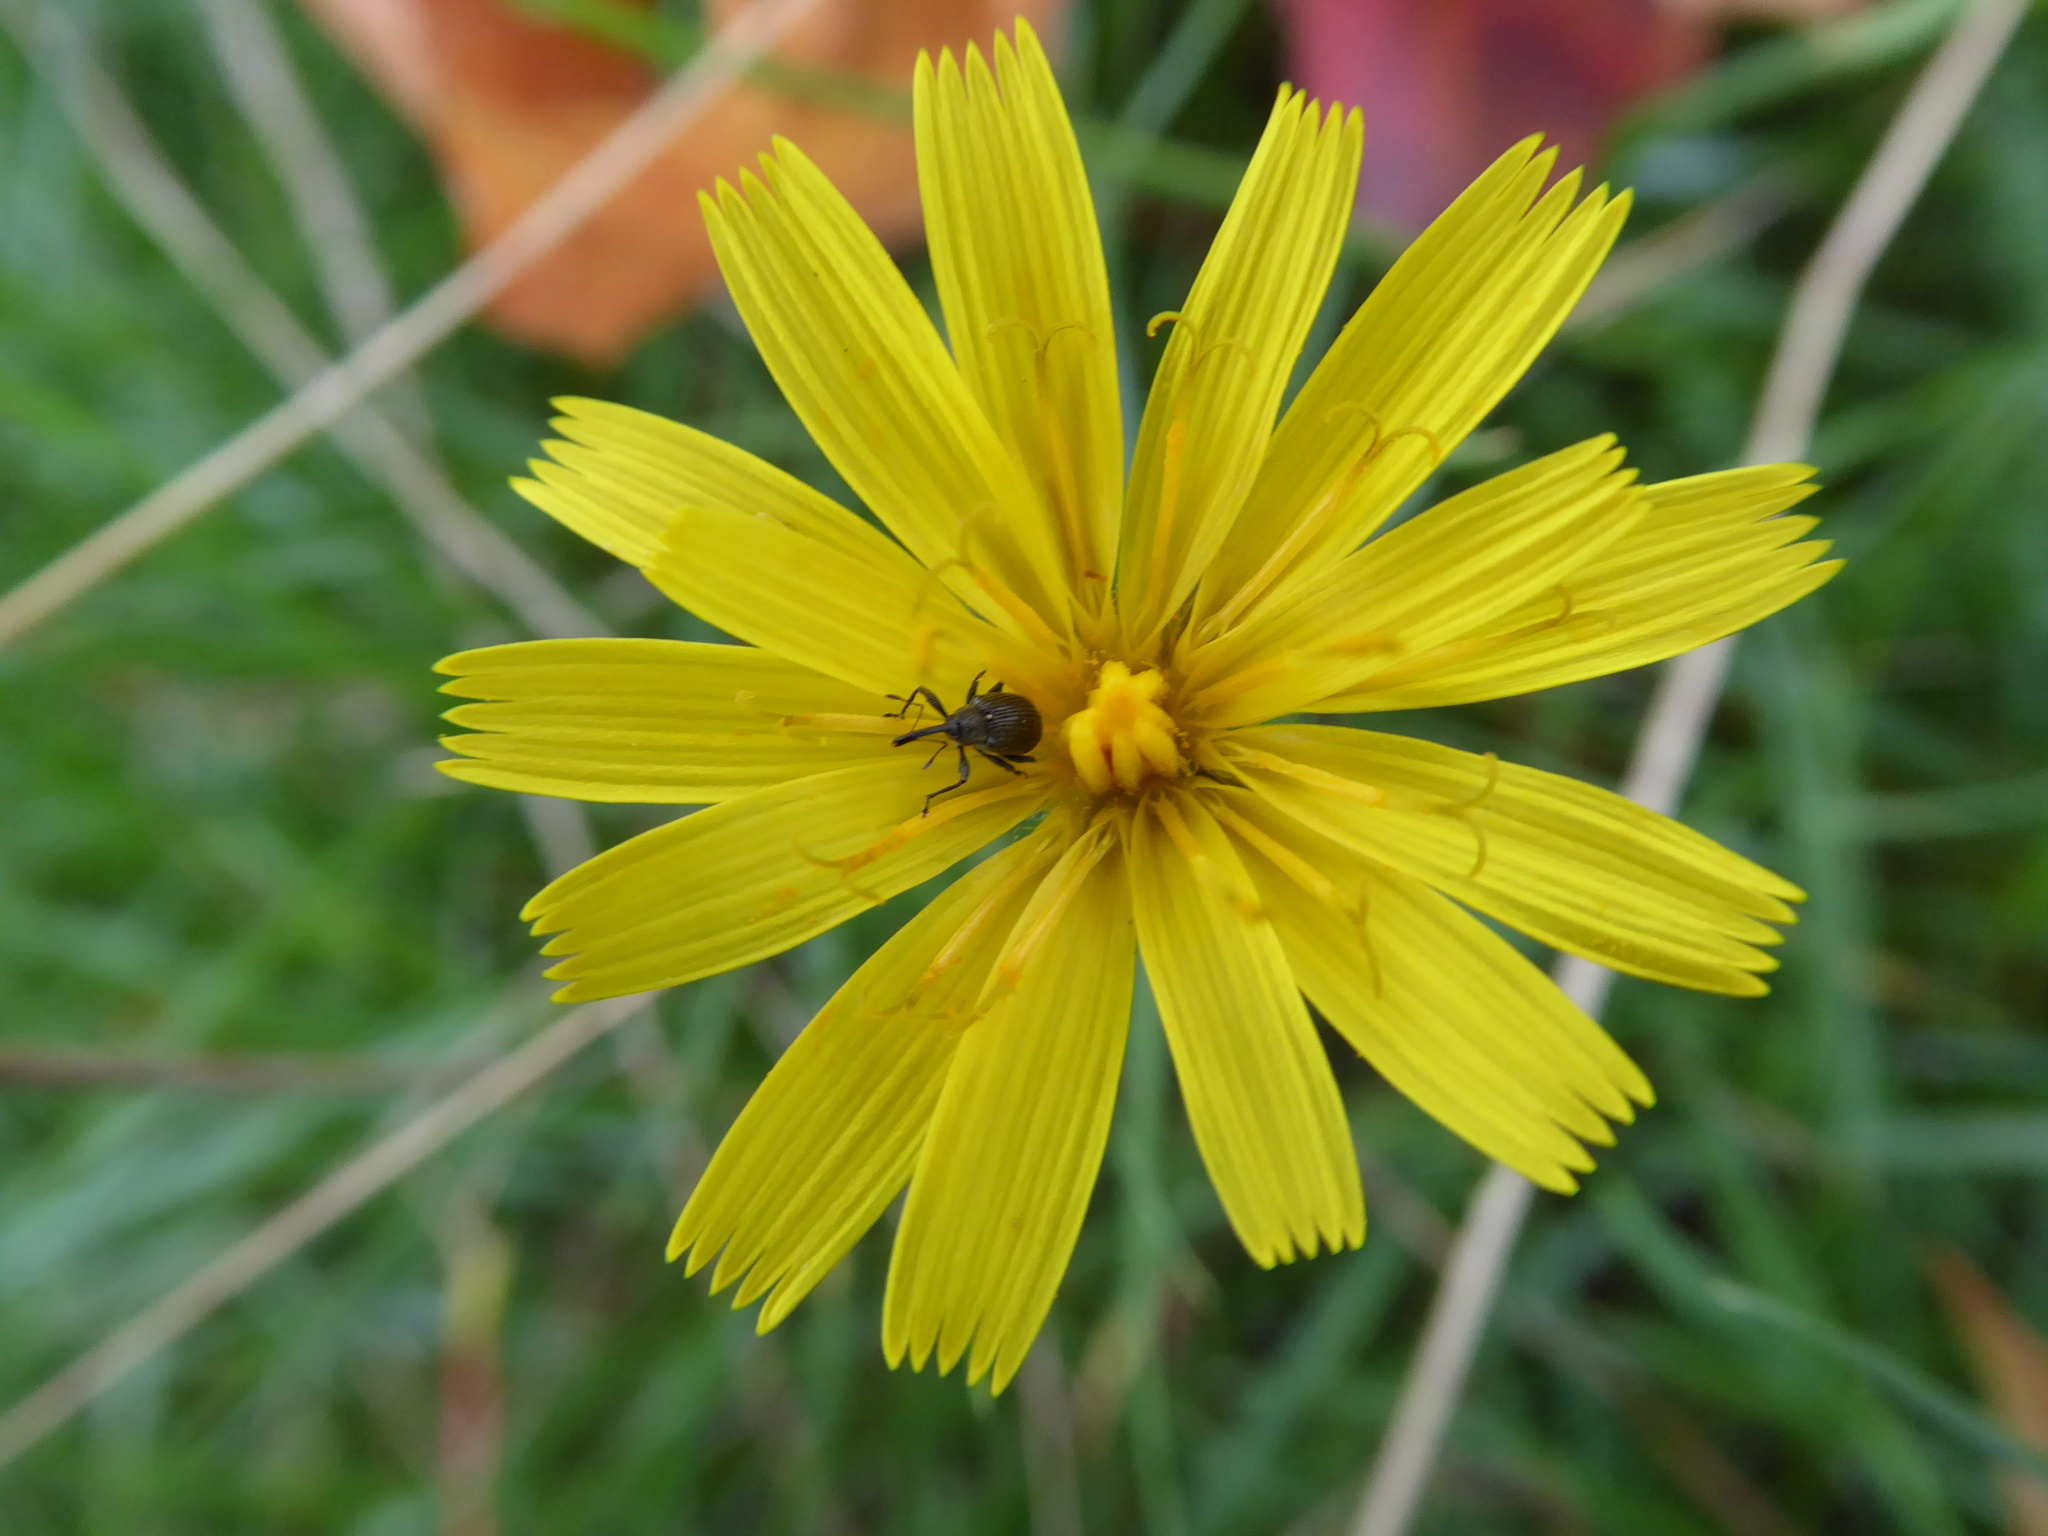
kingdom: Animalia
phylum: Arthropoda
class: Insecta
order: Coleoptera
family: Curculionidae
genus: Anthonomus
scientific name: Anthonomus rubi
